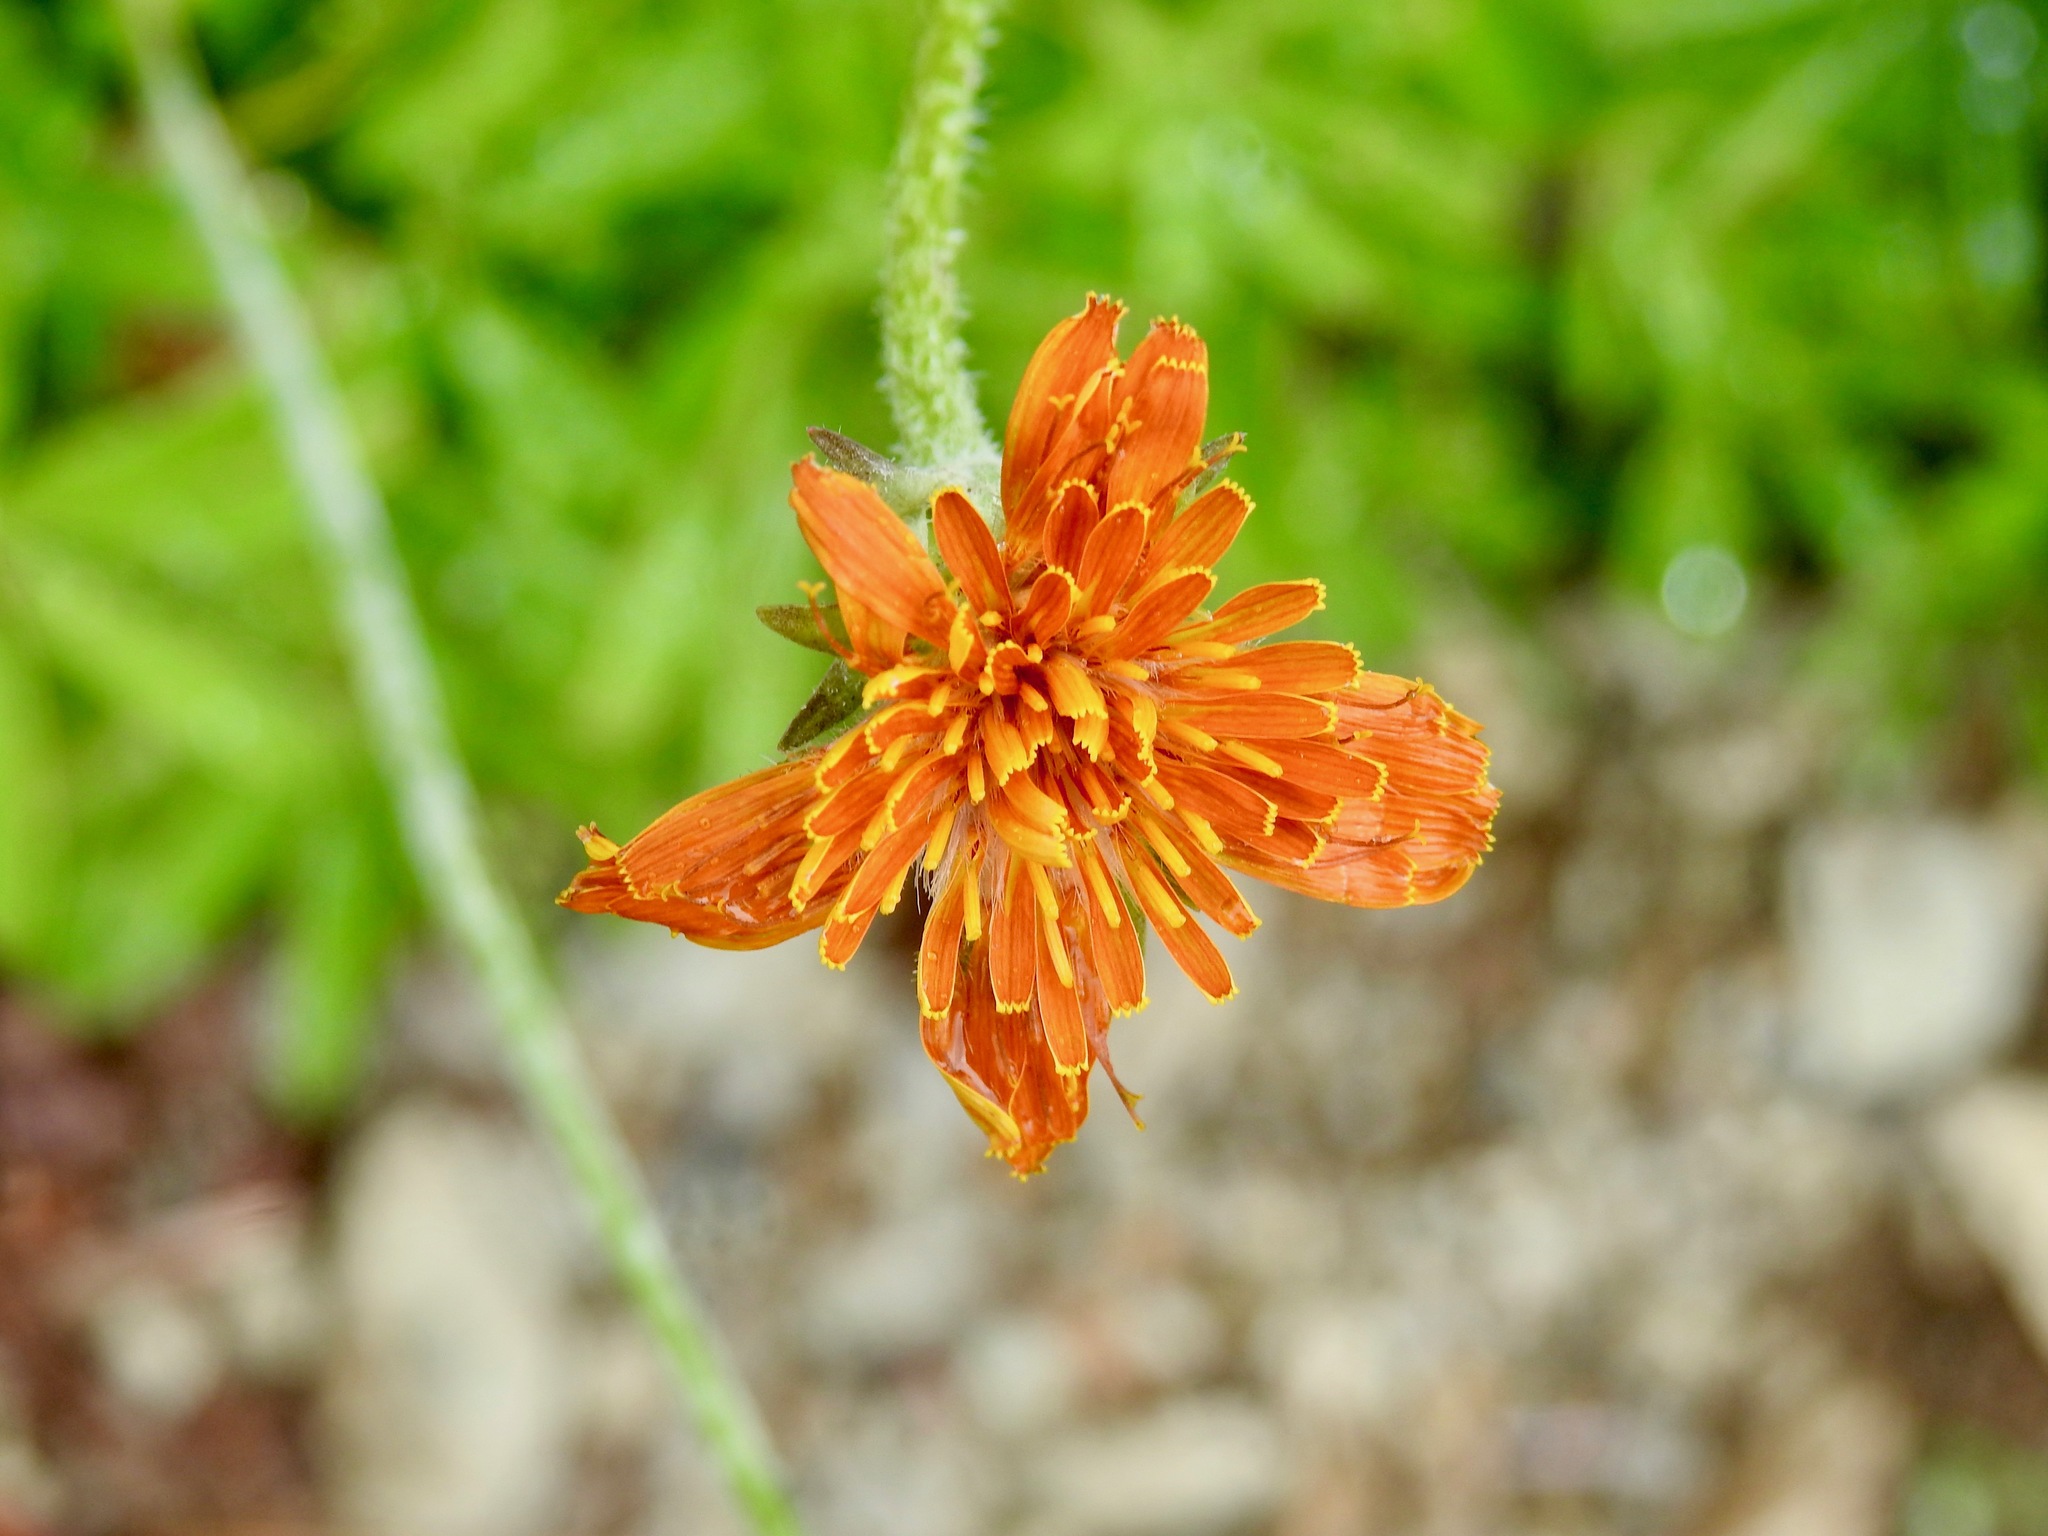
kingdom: Plantae
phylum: Tracheophyta
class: Magnoliopsida
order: Asterales
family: Asteraceae
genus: Agoseris
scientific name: Agoseris aurantiaca
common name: Mountain agoseris
